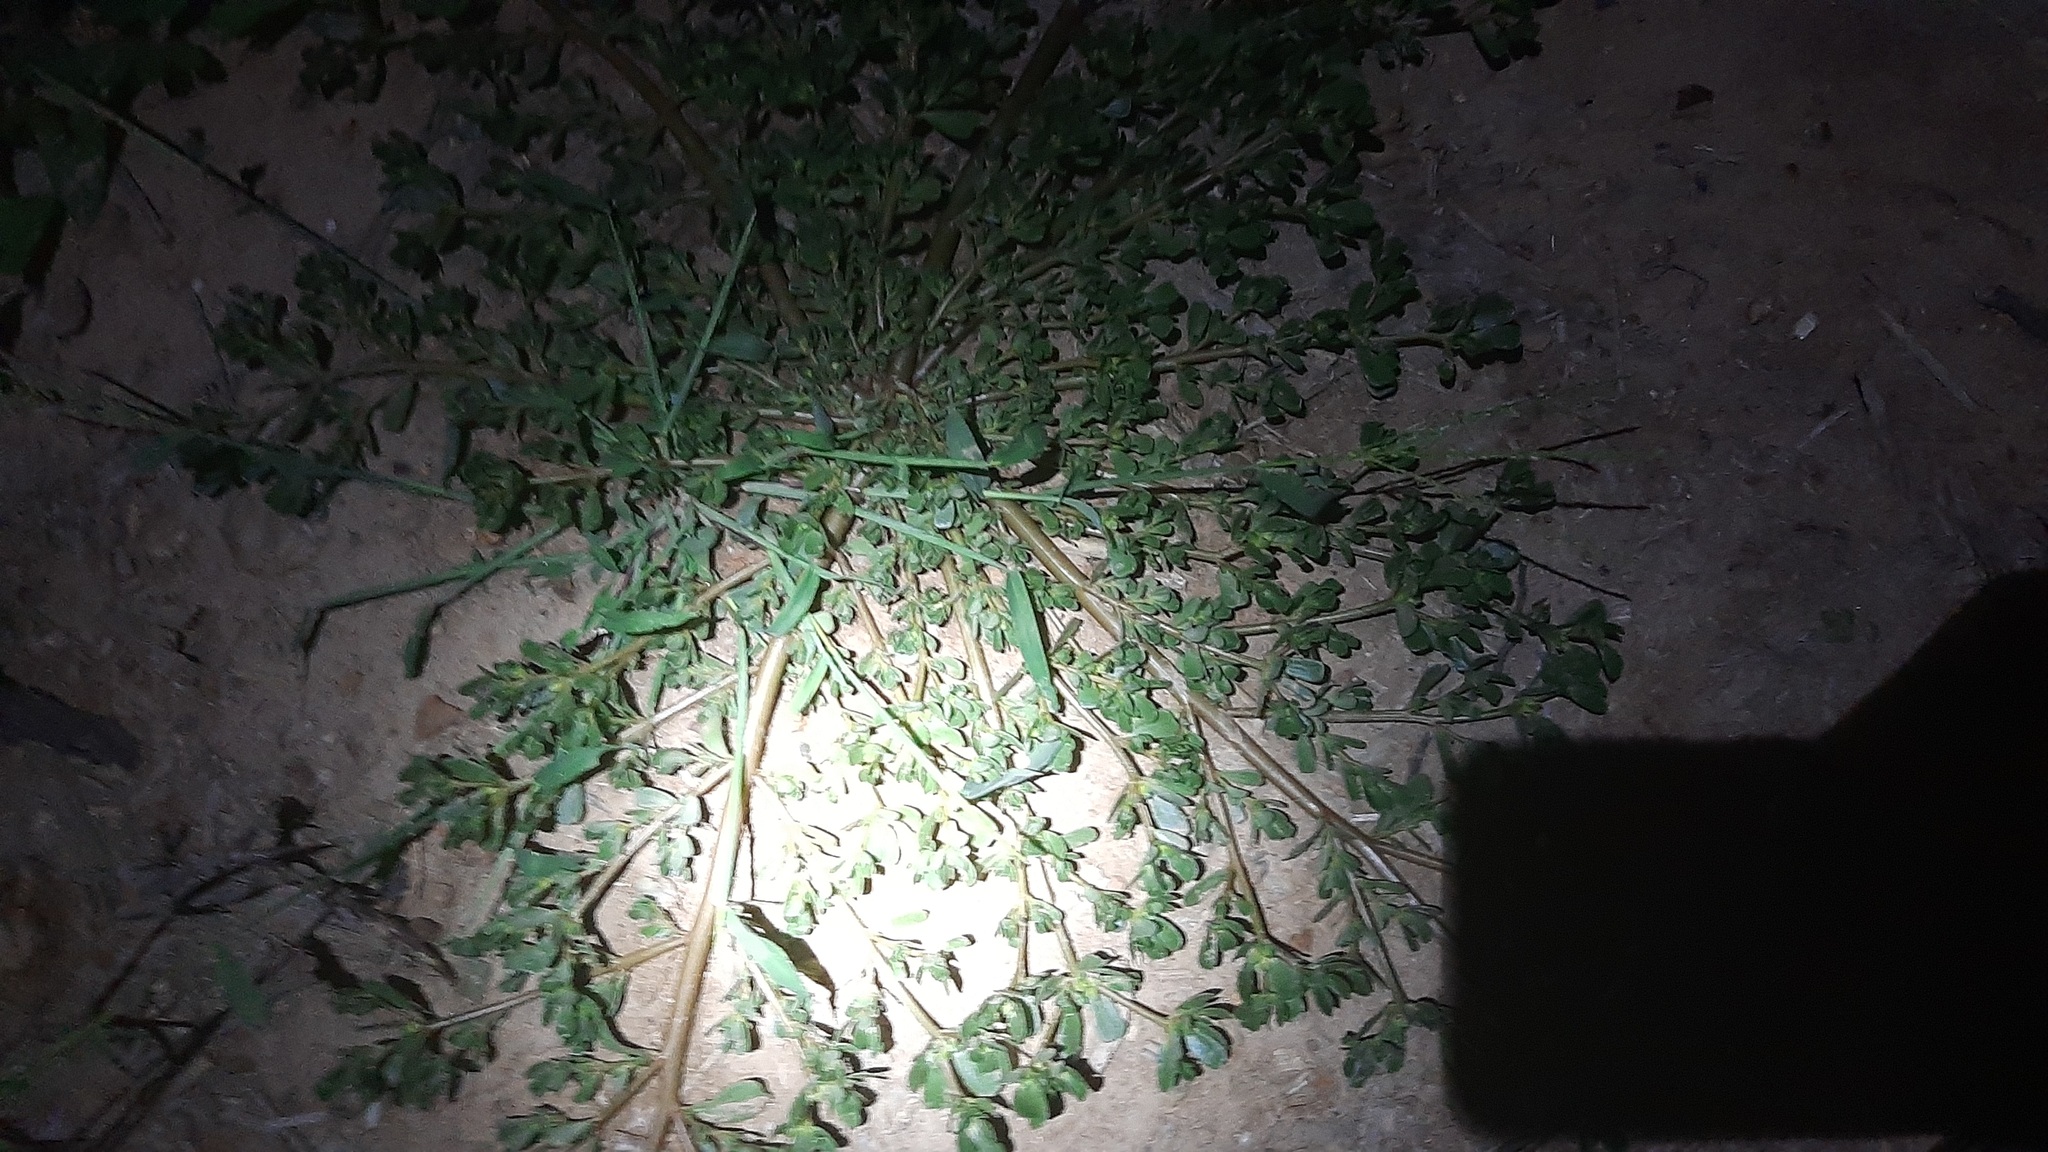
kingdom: Plantae
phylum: Tracheophyta
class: Magnoliopsida
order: Caryophyllales
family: Portulacaceae
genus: Portulaca
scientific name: Portulaca oleracea
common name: Common purslane
